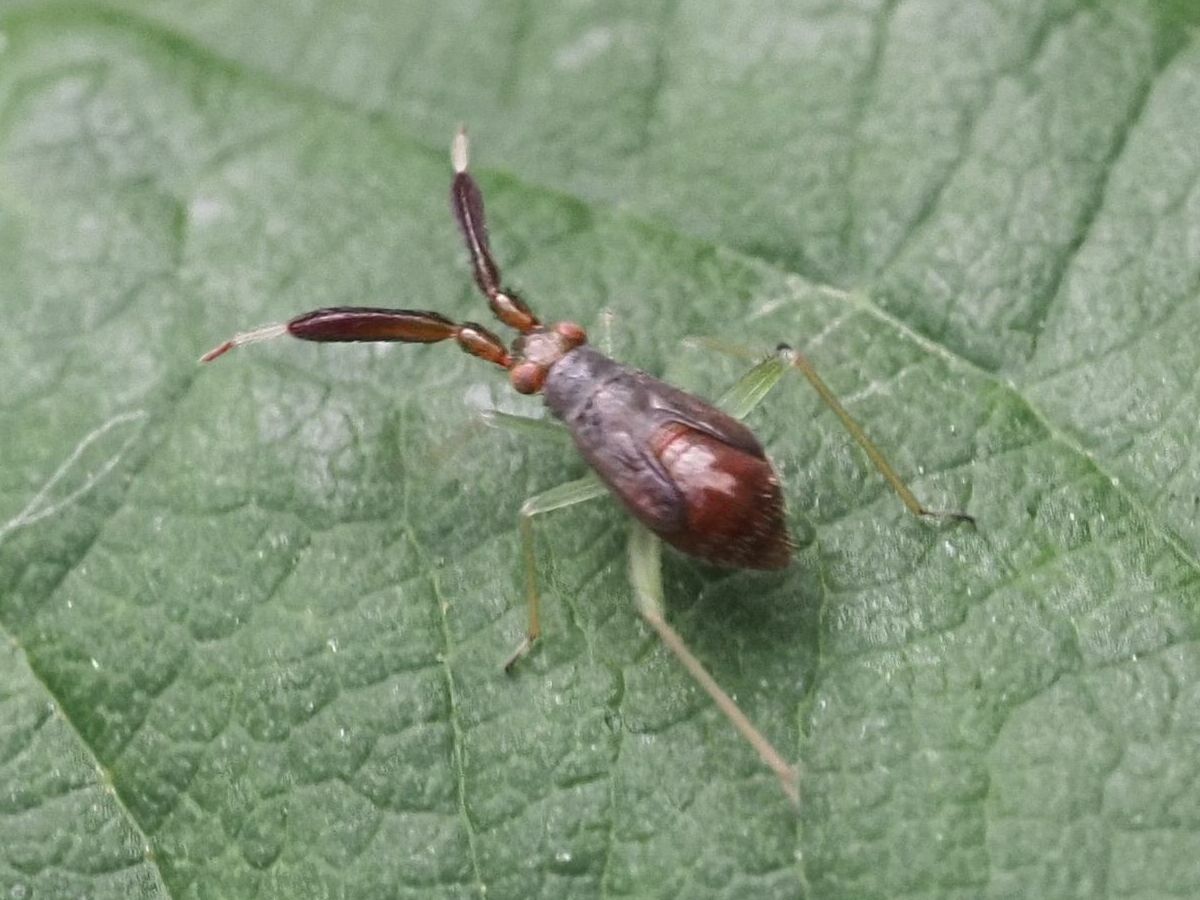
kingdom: Animalia
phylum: Arthropoda
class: Insecta
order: Hemiptera
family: Miridae
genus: Heterotoma
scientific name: Heterotoma planicornis
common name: Plant bug
